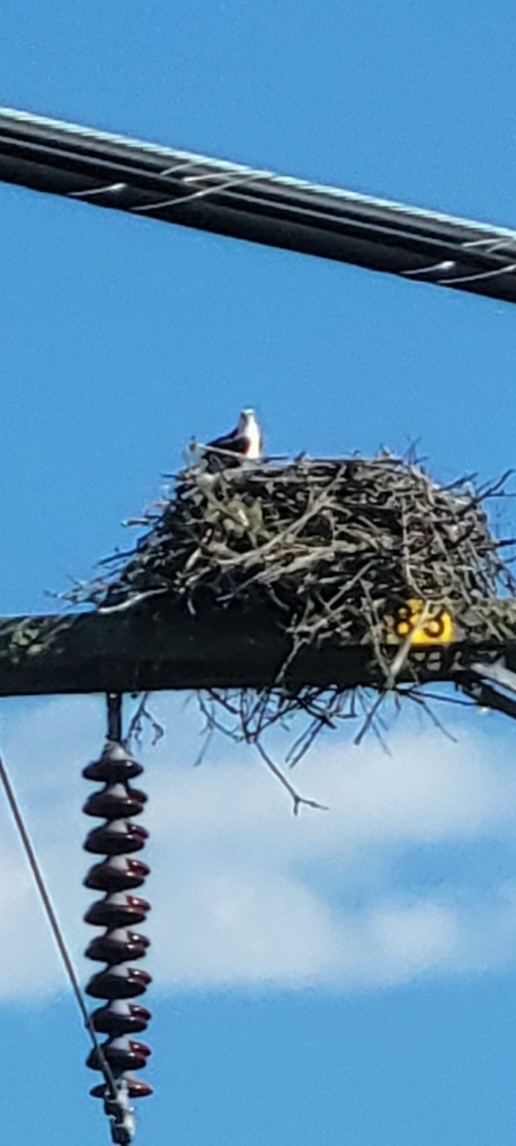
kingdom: Animalia
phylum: Chordata
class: Aves
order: Accipitriformes
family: Pandionidae
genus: Pandion
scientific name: Pandion haliaetus
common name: Osprey
